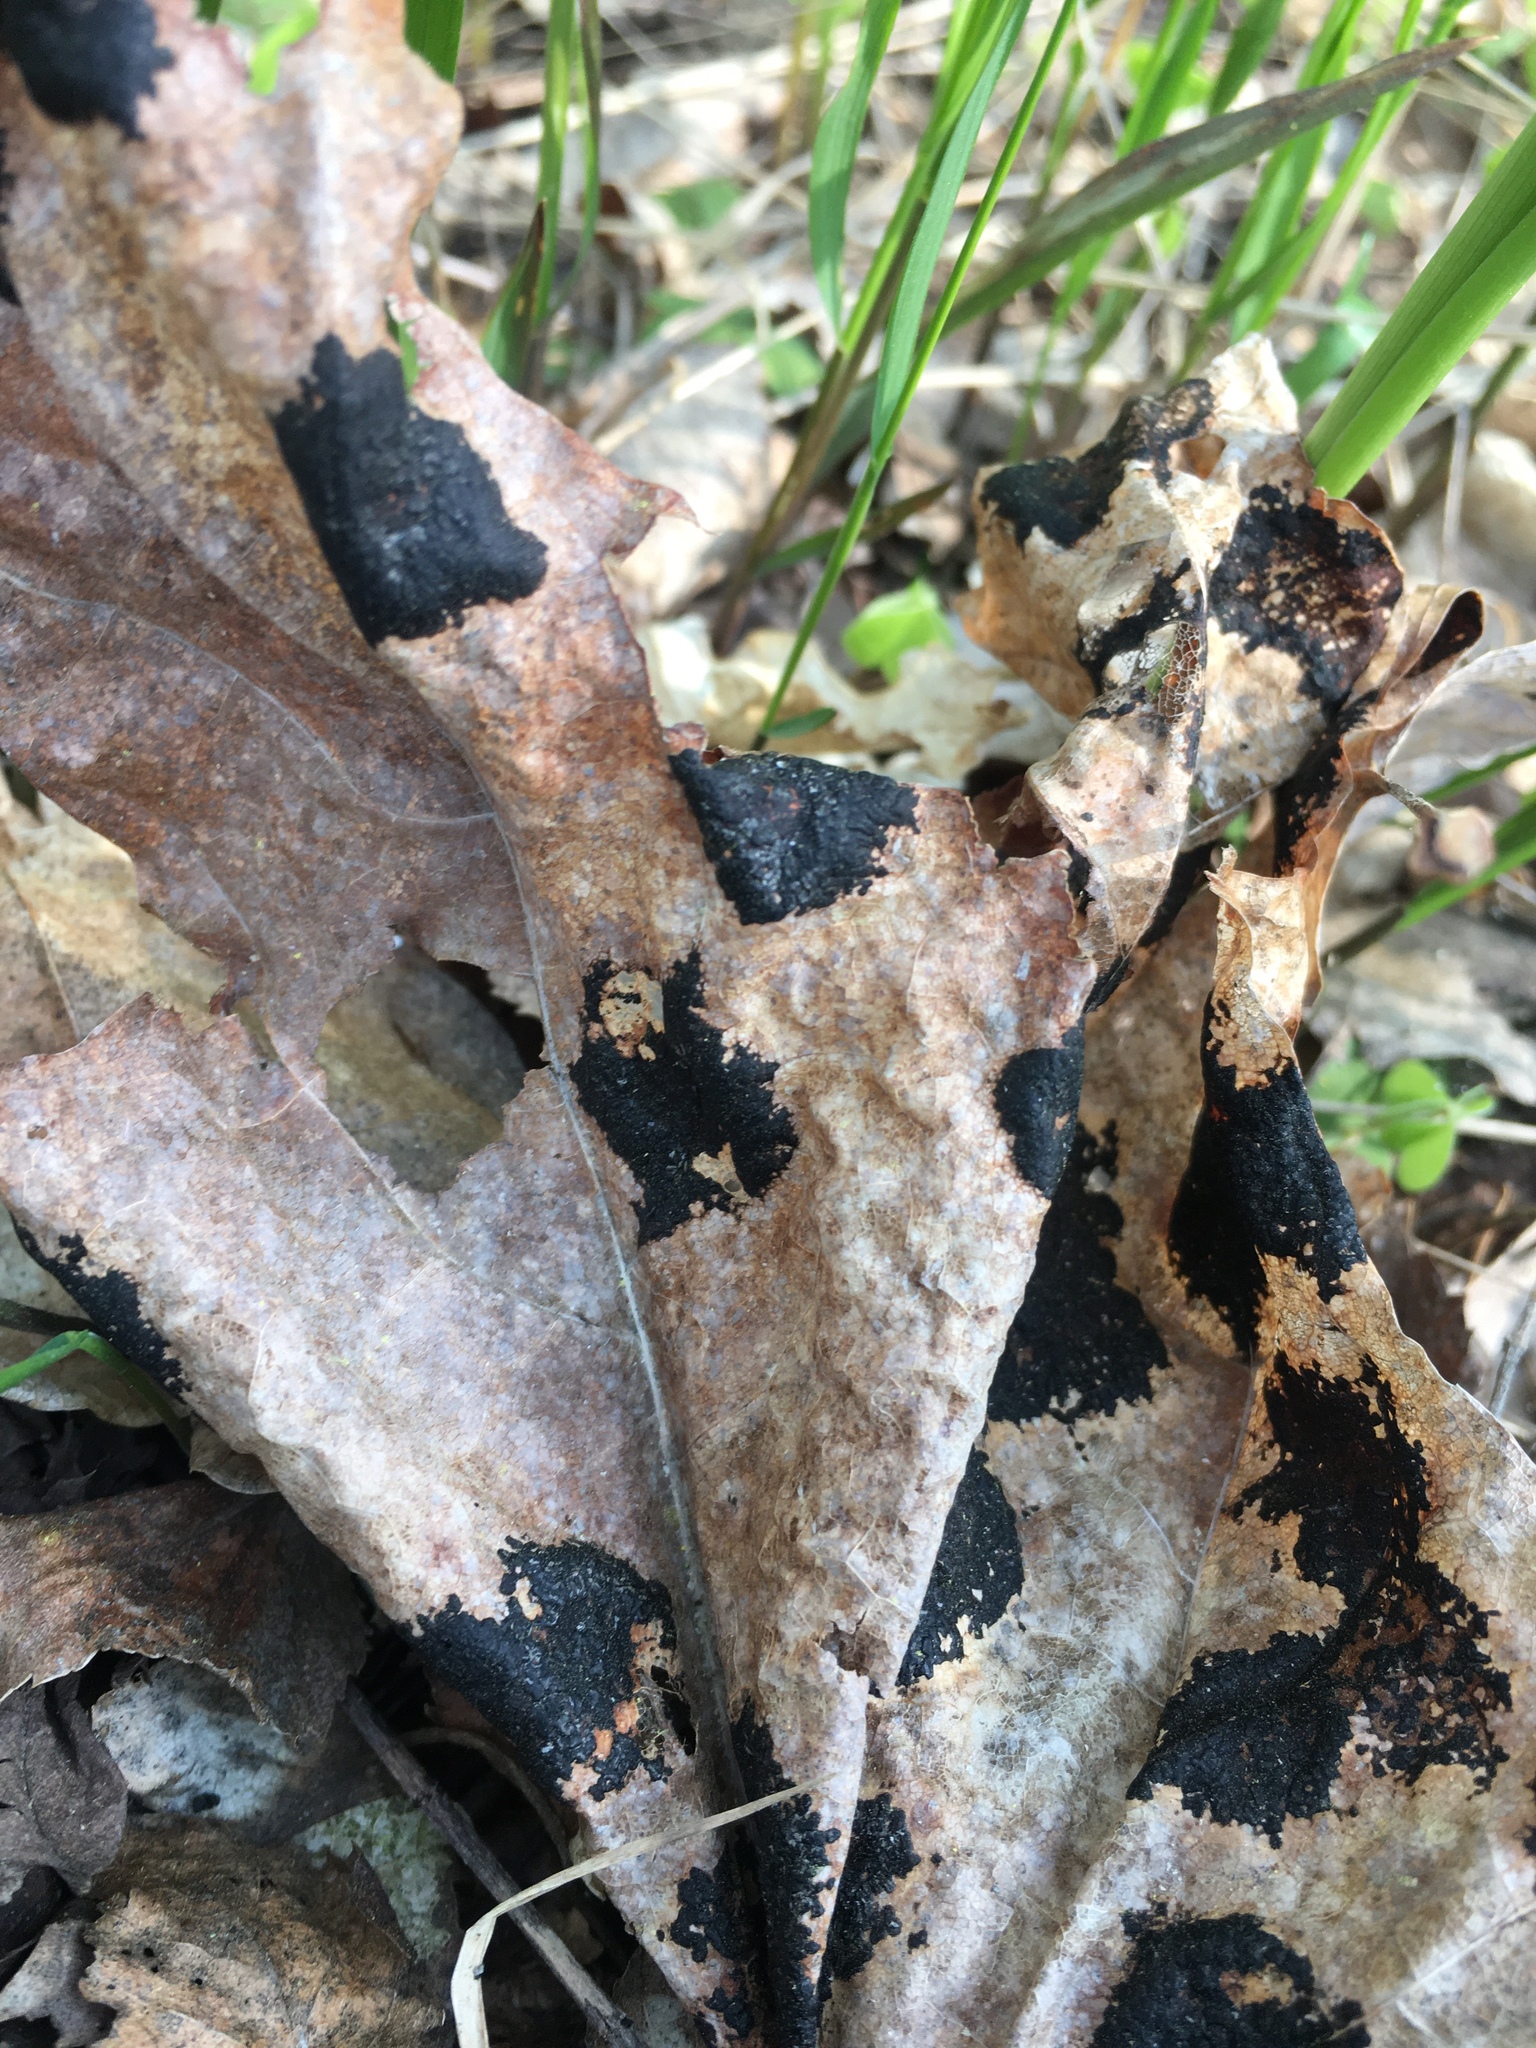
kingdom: Plantae
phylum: Tracheophyta
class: Magnoliopsida
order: Sapindales
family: Sapindaceae
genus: Acer
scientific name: Acer platanoides
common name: Norway maple
